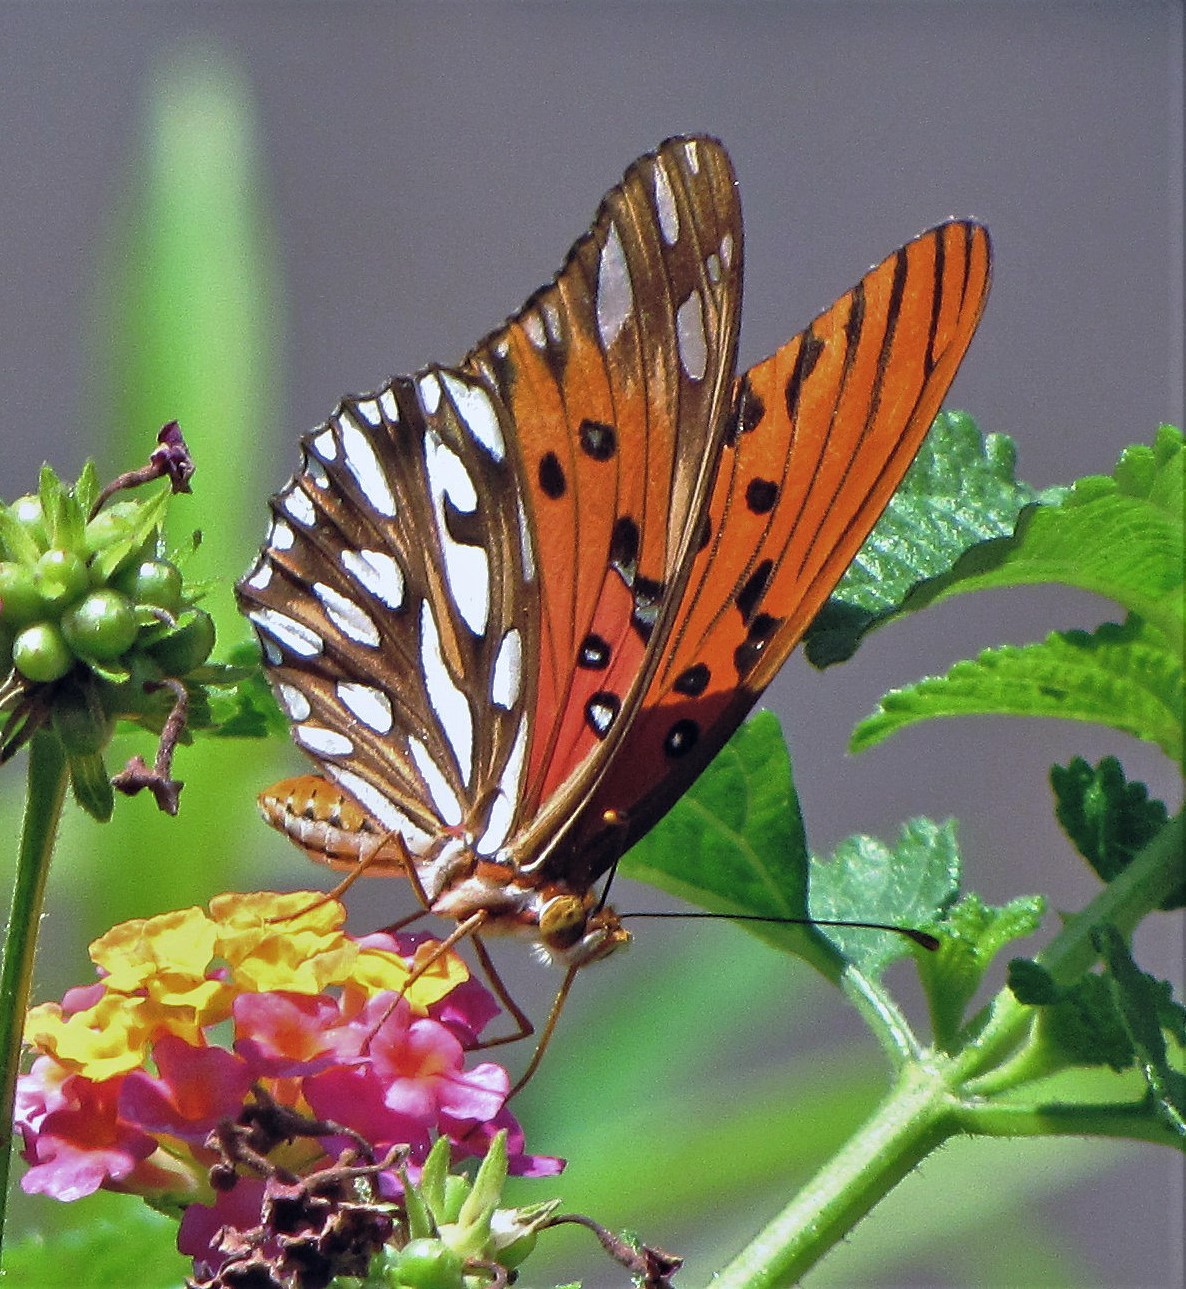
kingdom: Animalia
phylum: Arthropoda
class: Insecta
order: Lepidoptera
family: Nymphalidae
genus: Dione
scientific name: Dione vanillae
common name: Gulf fritillary
